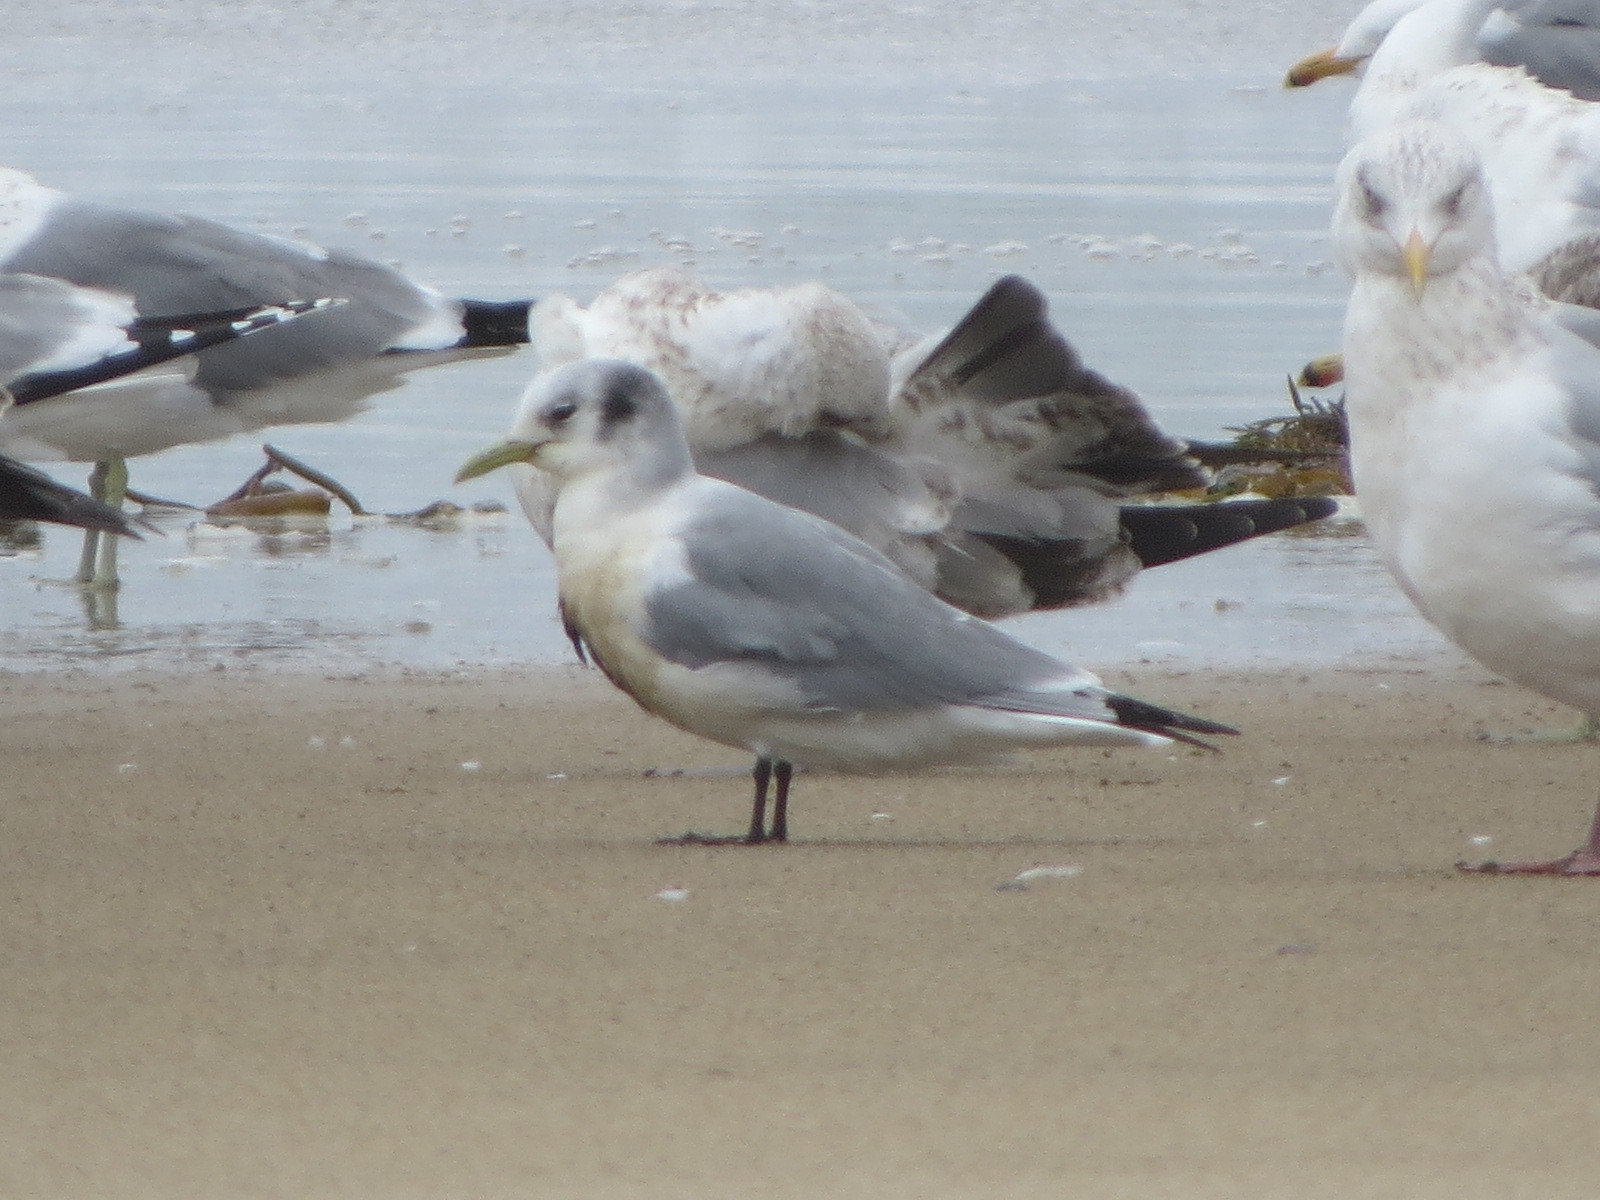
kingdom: Animalia
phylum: Chordata
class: Aves
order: Charadriiformes
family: Laridae
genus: Rissa
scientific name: Rissa tridactyla
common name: Black-legged kittiwake
